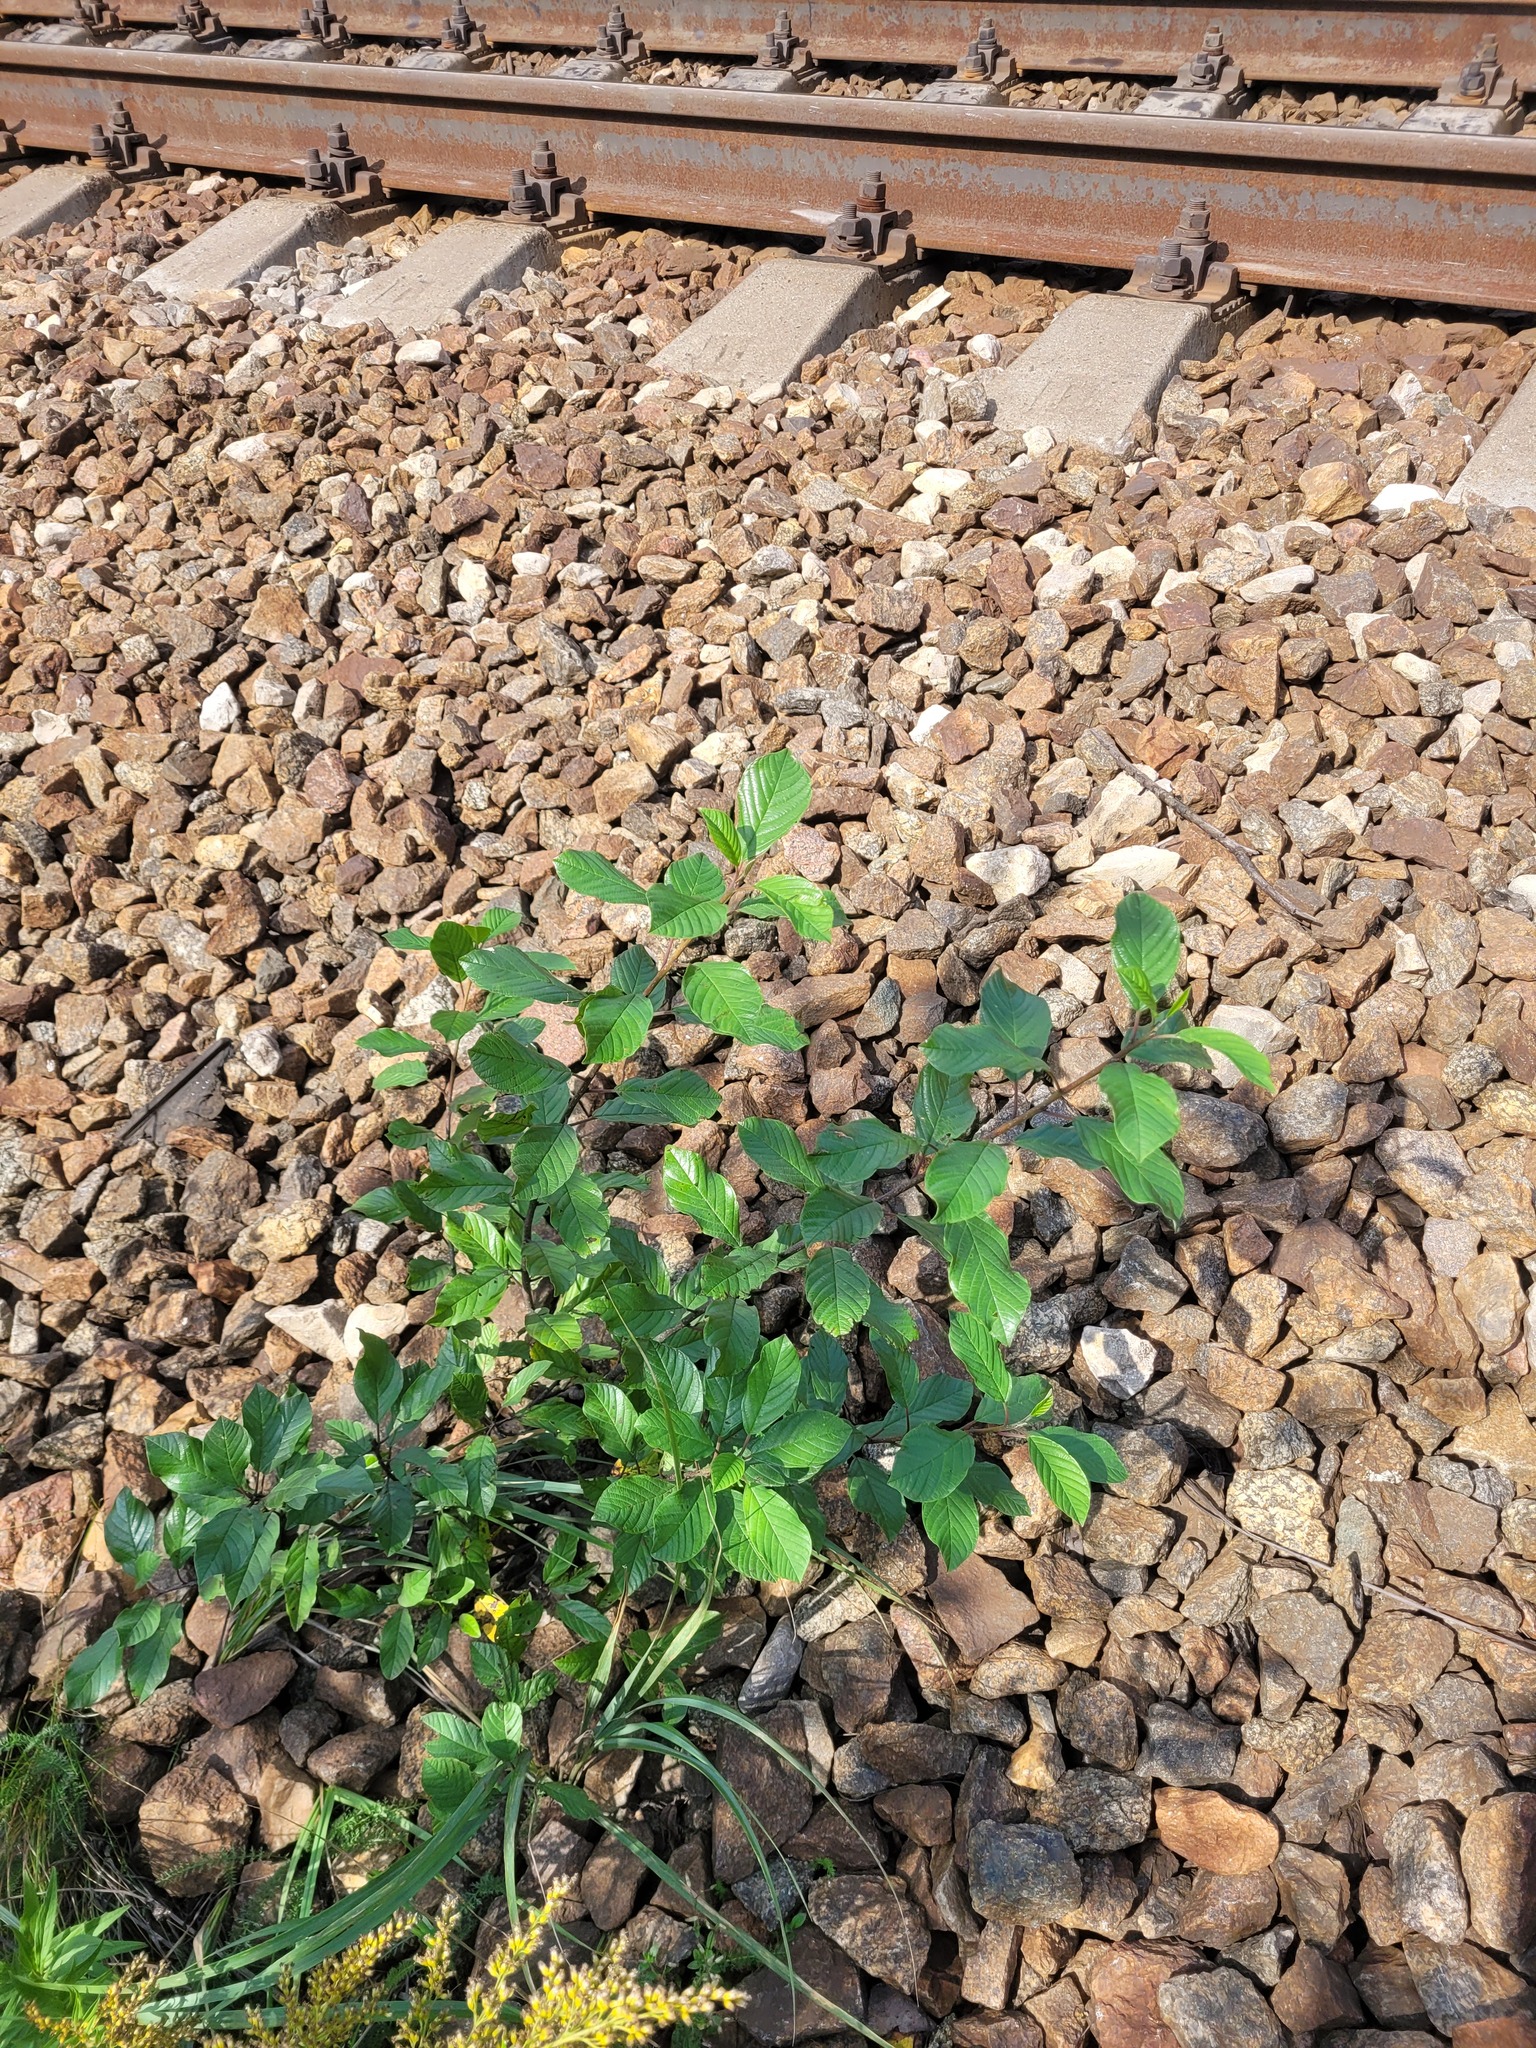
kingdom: Plantae
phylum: Tracheophyta
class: Magnoliopsida
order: Rosales
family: Rhamnaceae
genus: Frangula
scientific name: Frangula alnus
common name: Alder buckthorn
